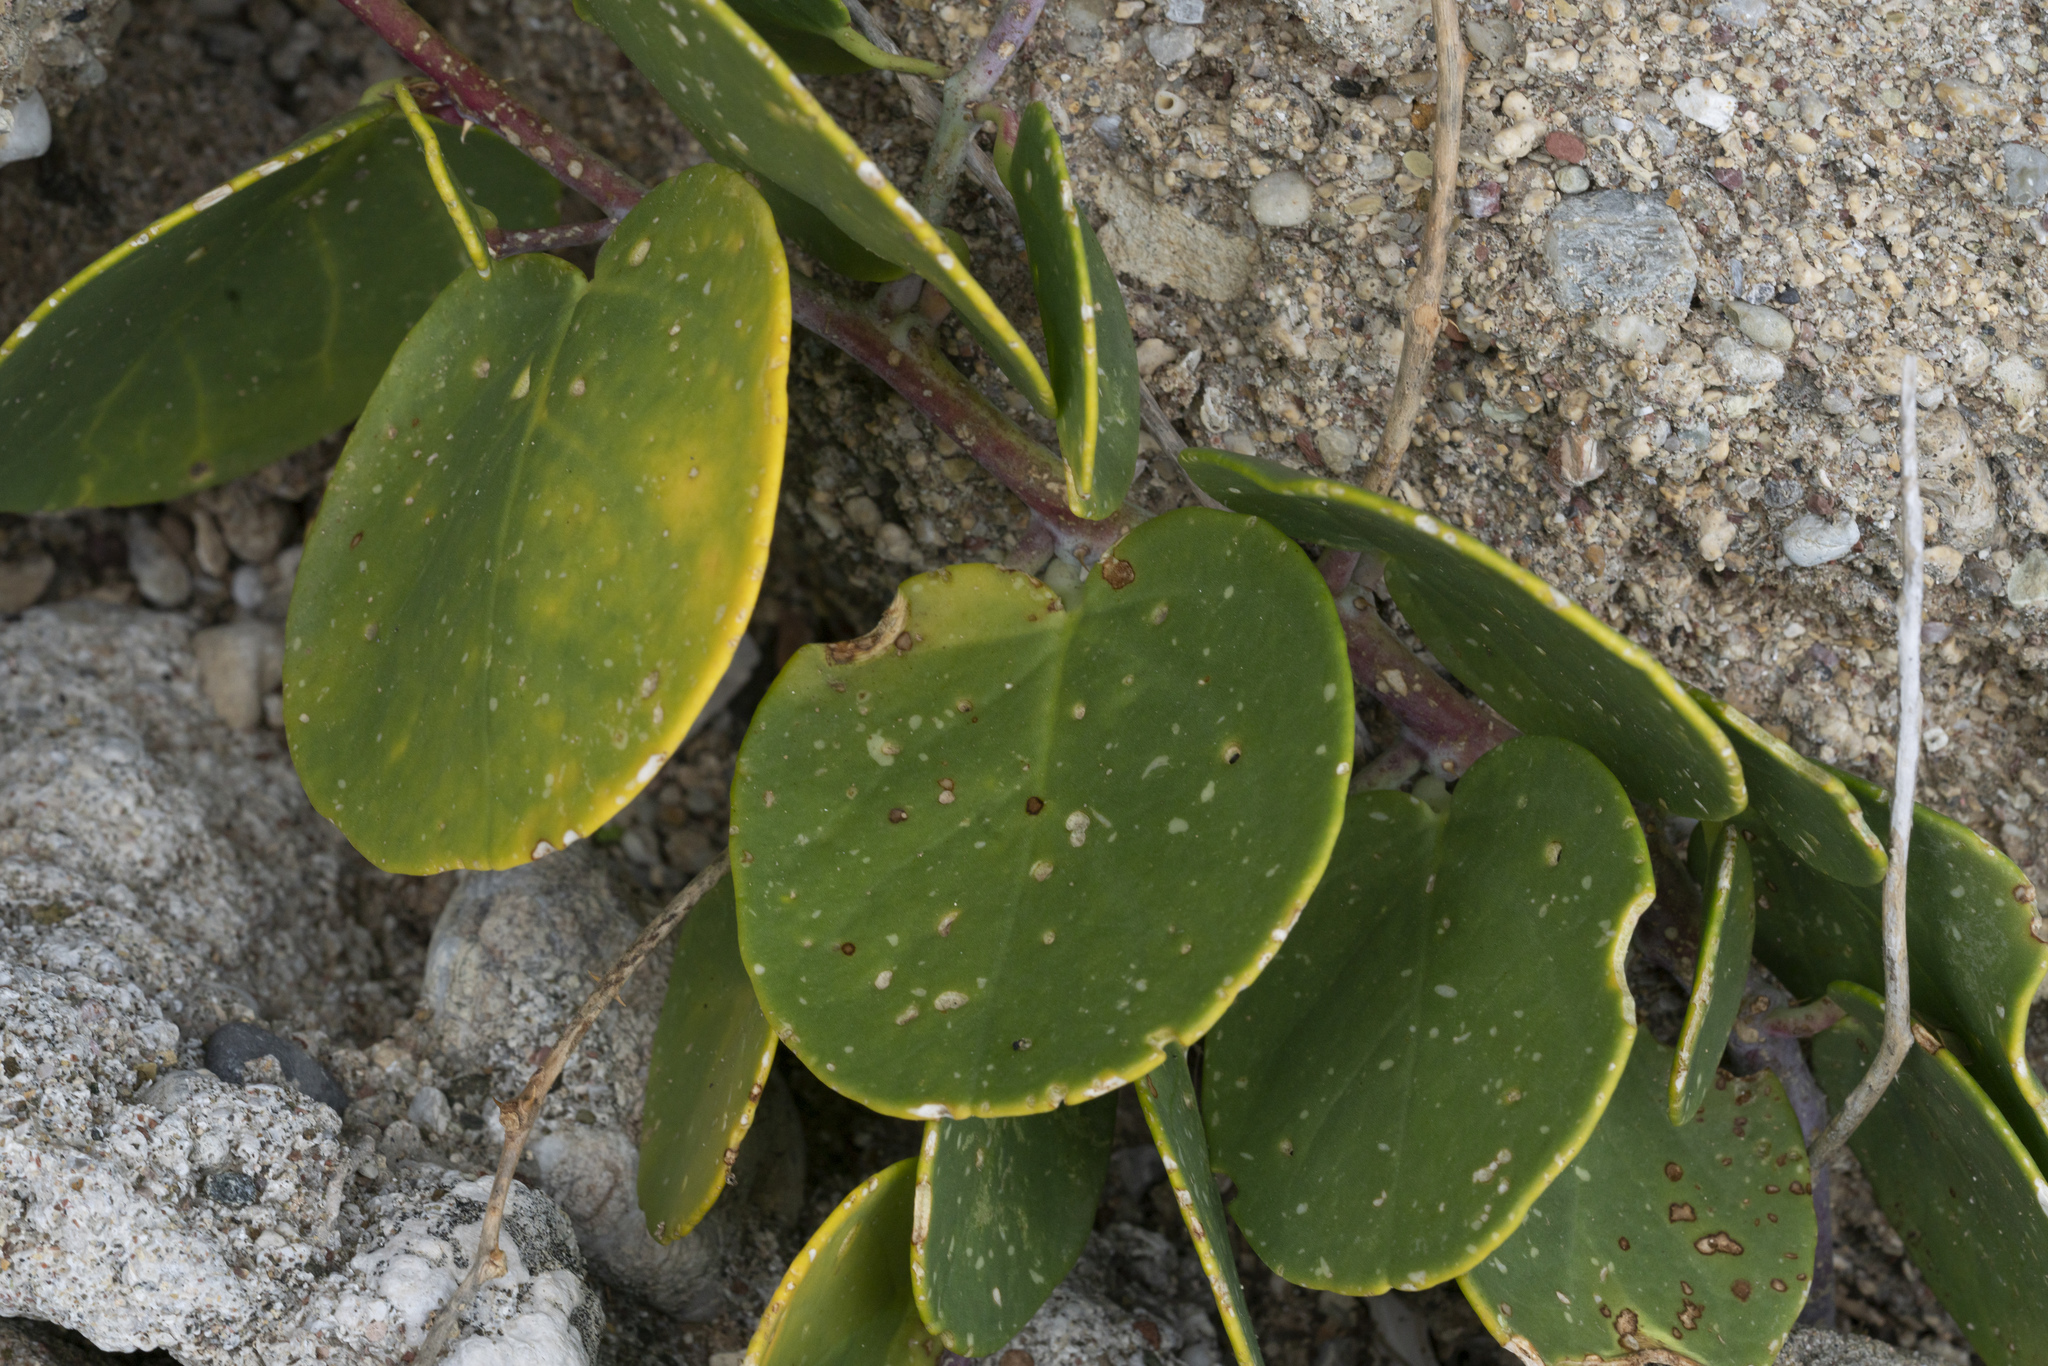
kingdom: Plantae
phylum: Tracheophyta
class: Magnoliopsida
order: Brassicales
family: Capparaceae
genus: Capparis
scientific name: Capparis orientalis
